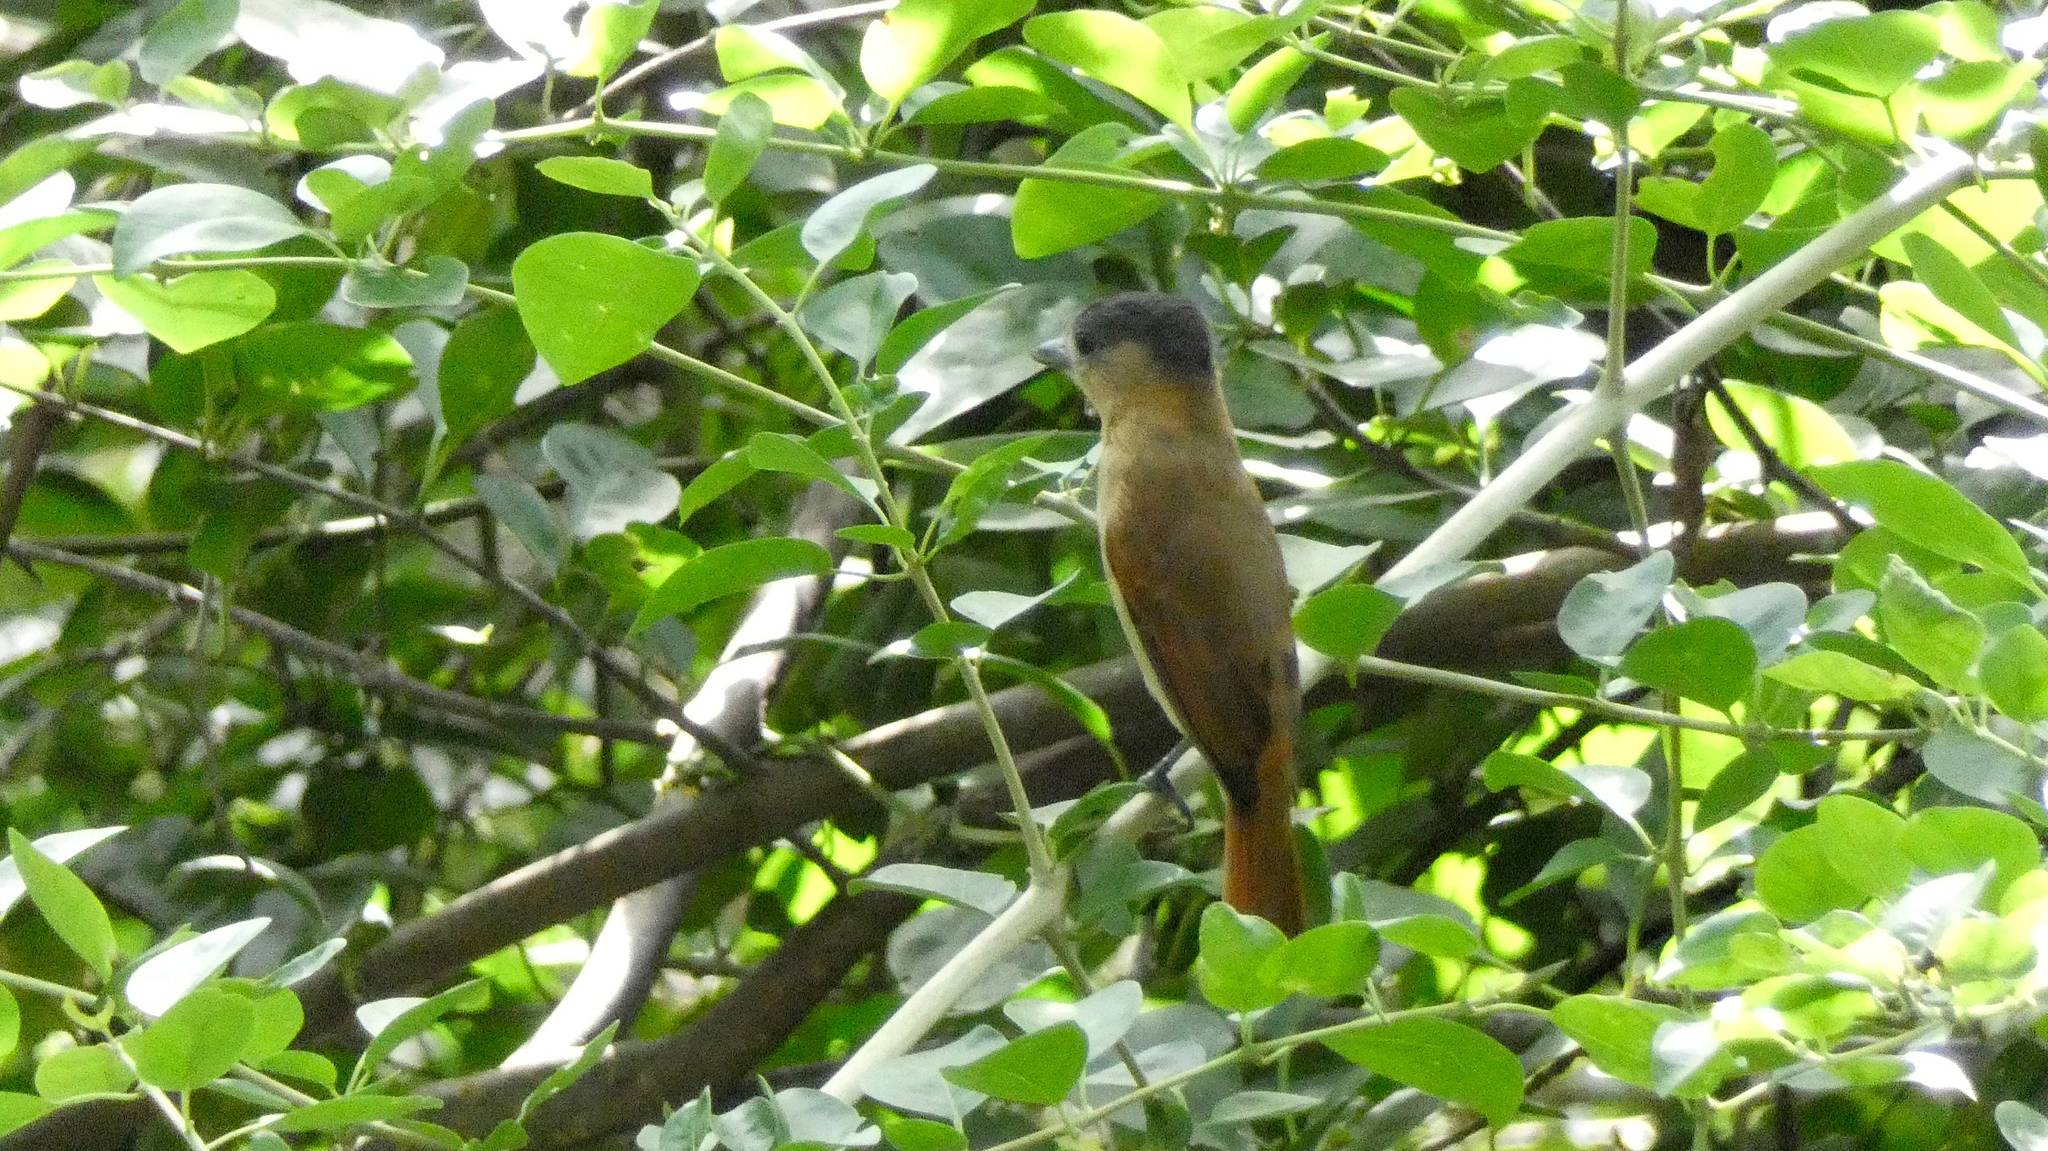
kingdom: Animalia
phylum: Chordata
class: Aves
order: Passeriformes
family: Cotingidae
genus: Pachyramphus
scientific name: Pachyramphus aglaiae
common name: Rose-throated becard
